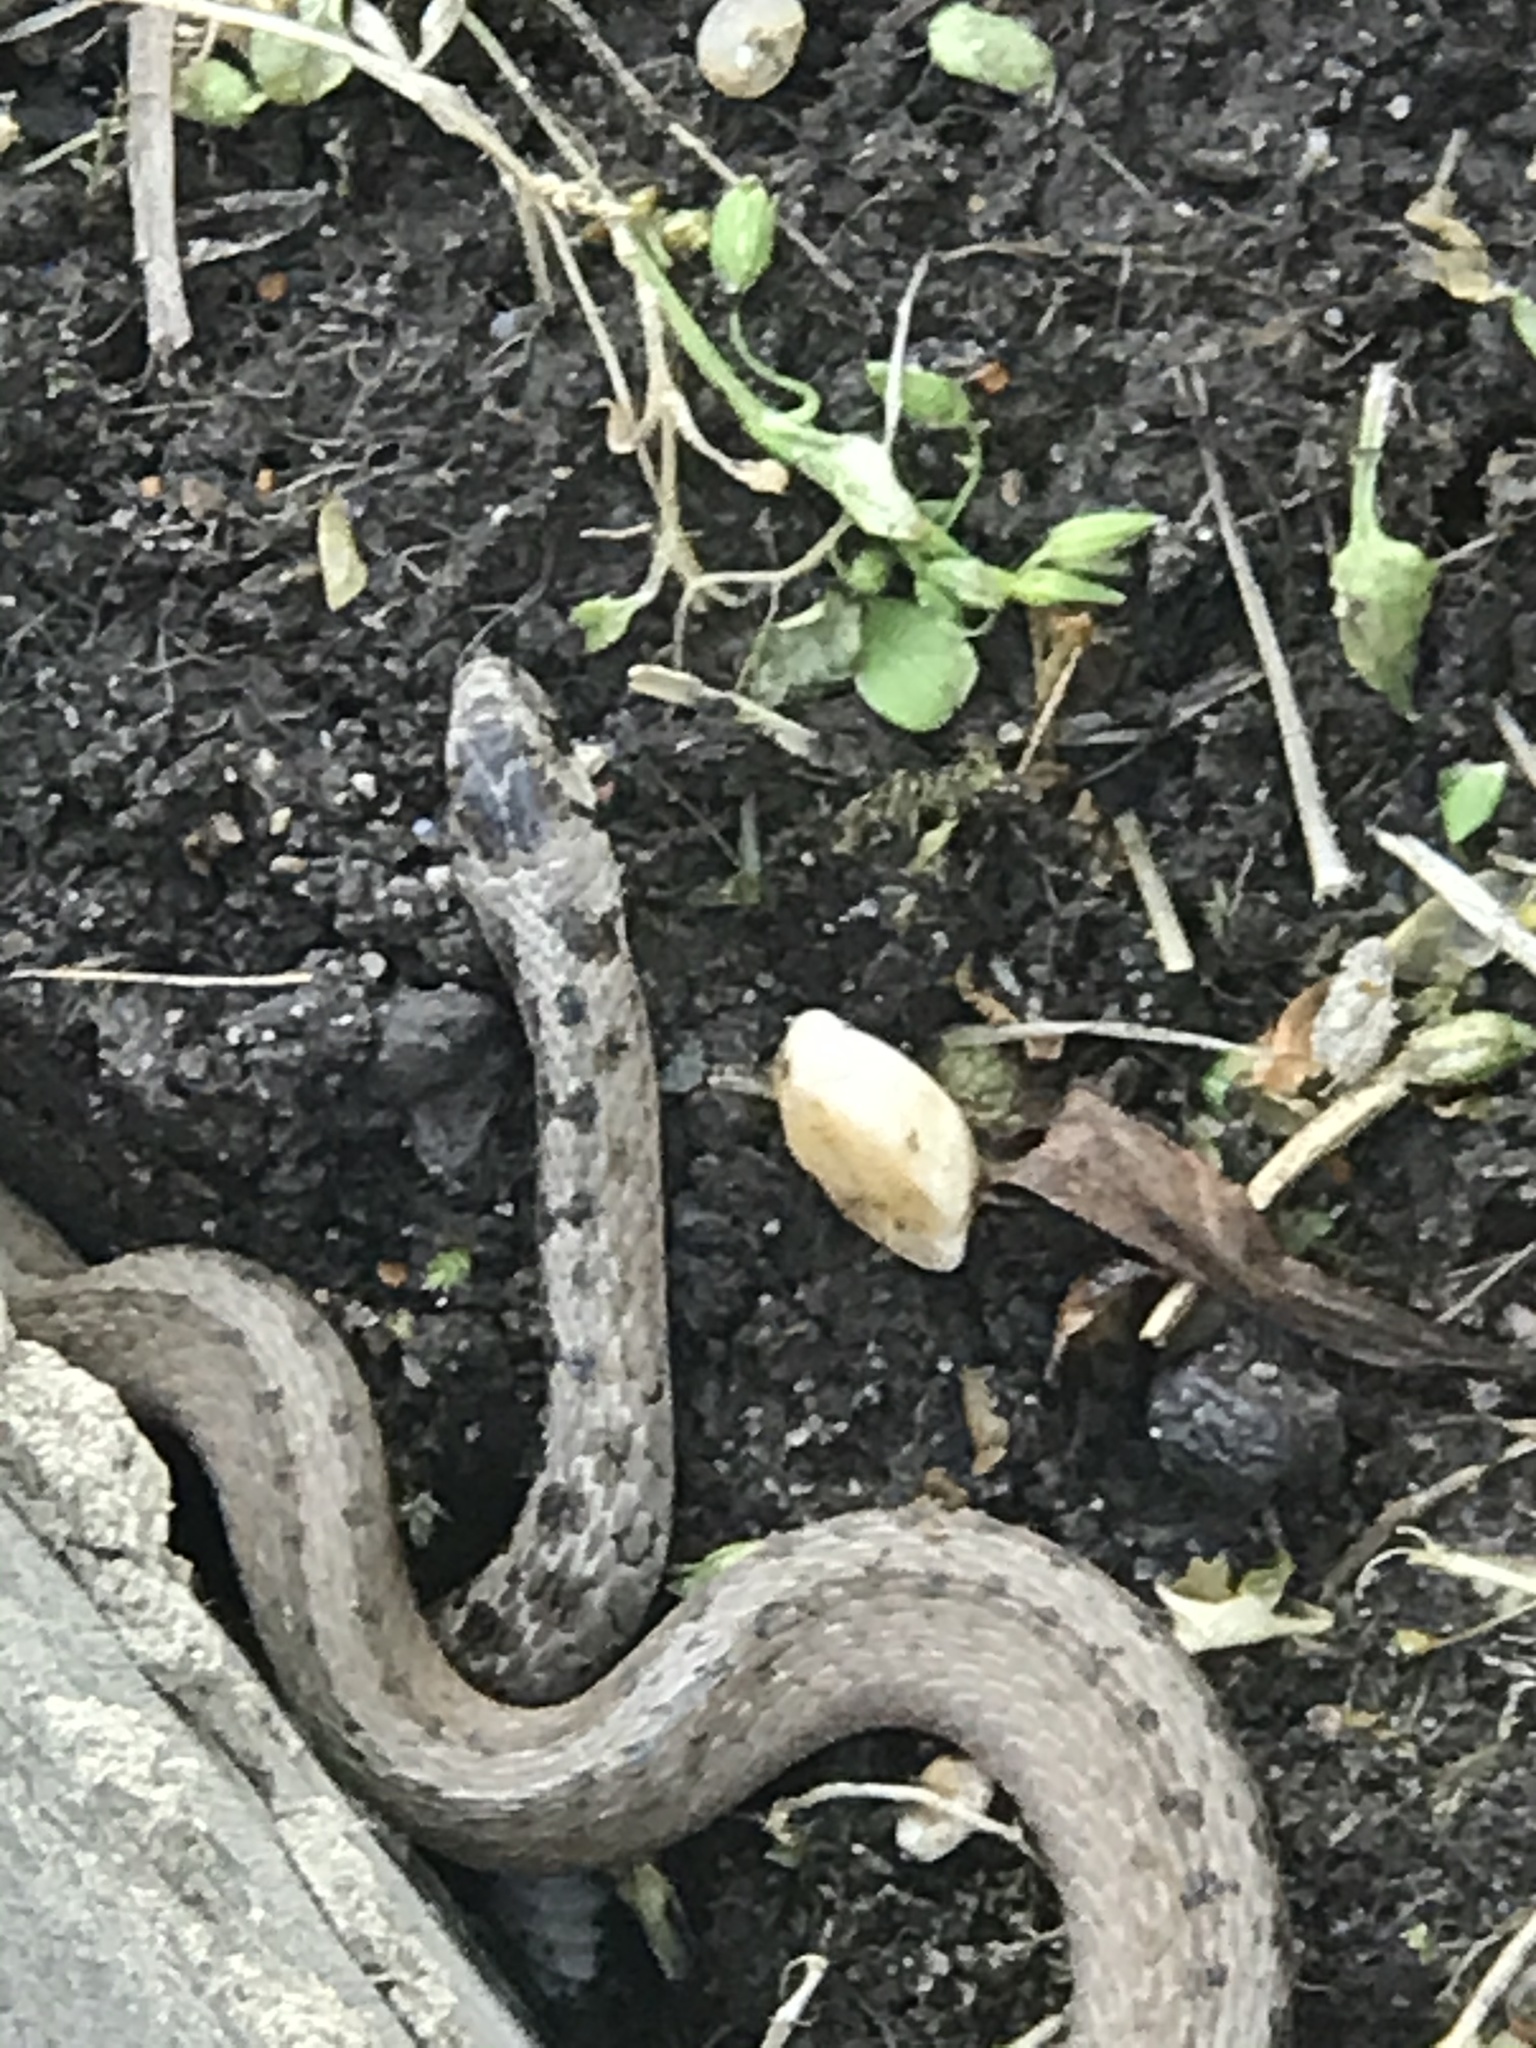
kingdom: Animalia
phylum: Chordata
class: Squamata
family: Colubridae
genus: Storeria
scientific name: Storeria dekayi
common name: (dekay’s) brown snake
